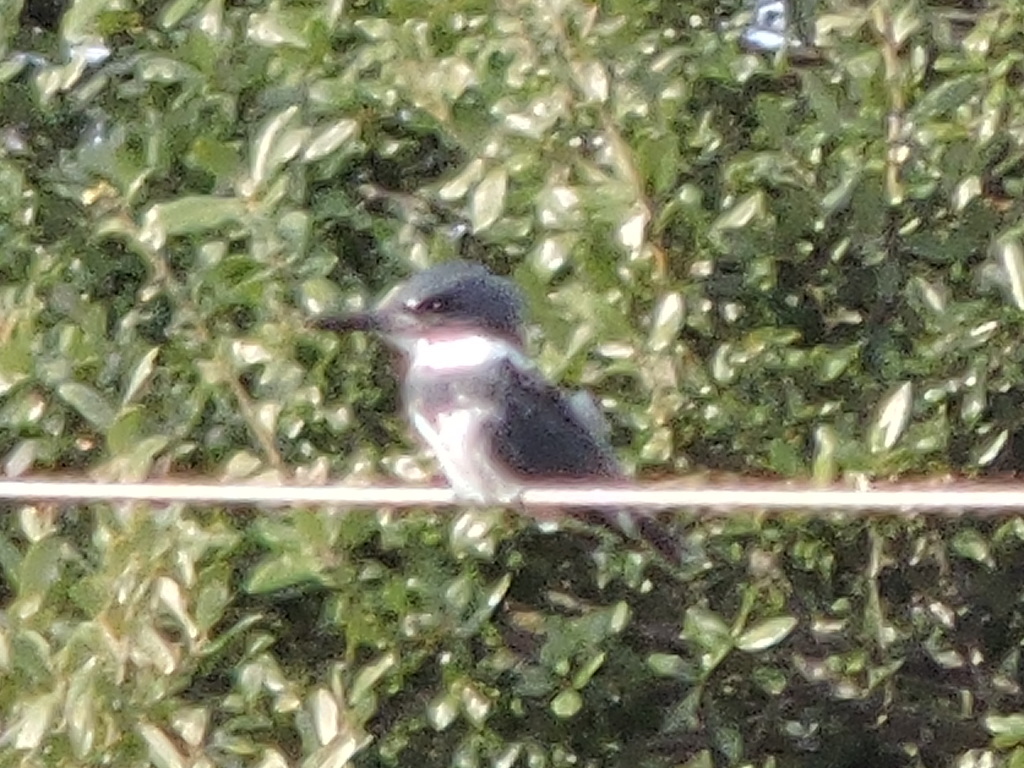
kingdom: Animalia
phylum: Chordata
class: Aves
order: Coraciiformes
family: Alcedinidae
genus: Megaceryle
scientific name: Megaceryle alcyon
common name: Belted kingfisher
